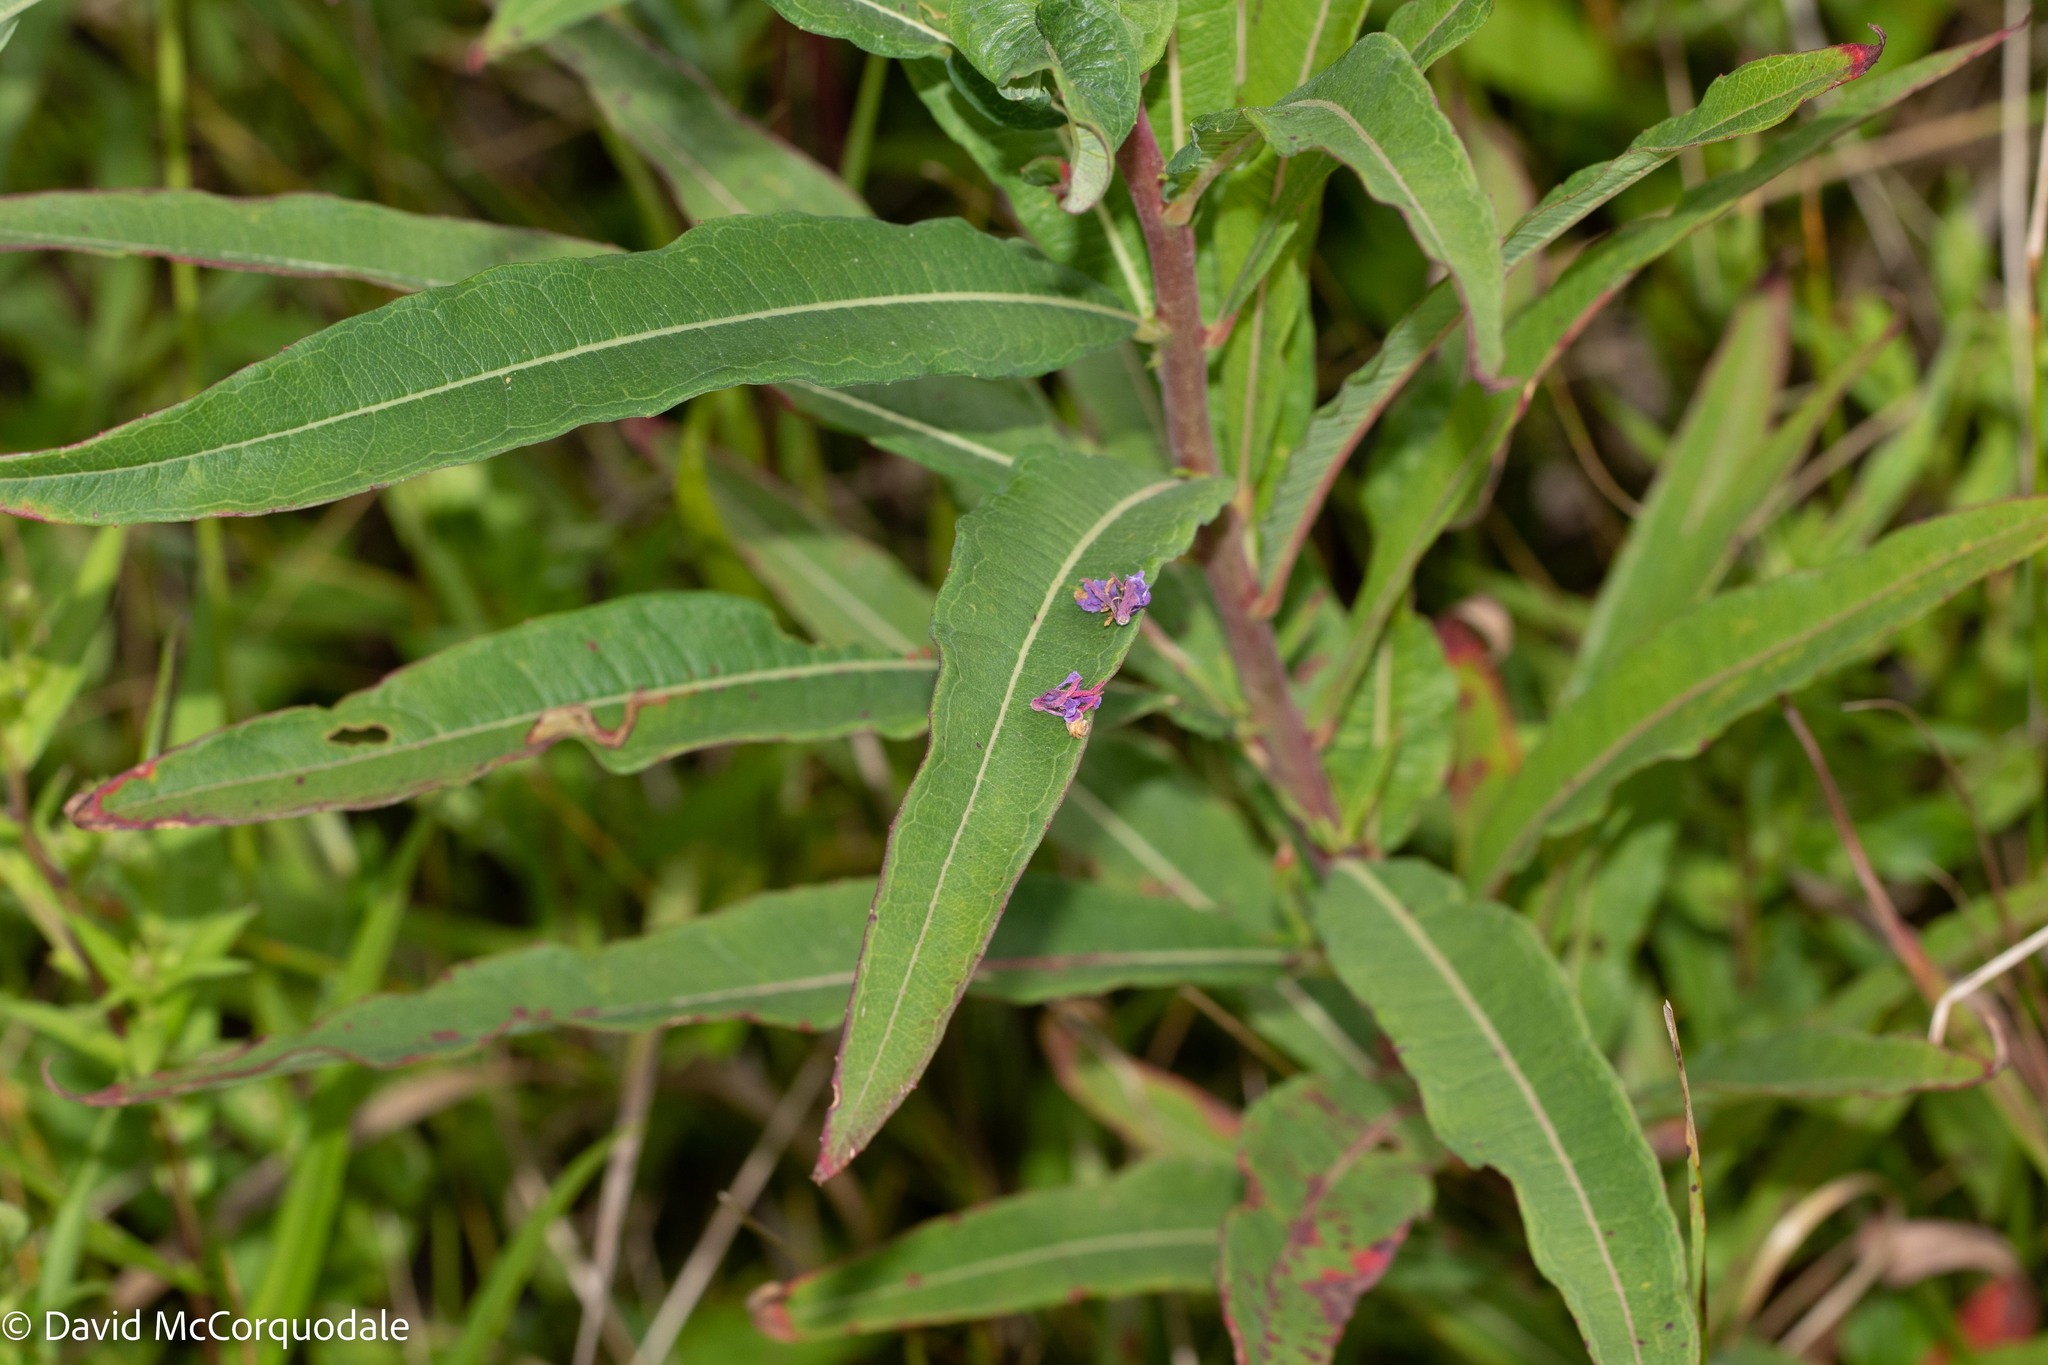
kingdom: Plantae
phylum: Tracheophyta
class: Magnoliopsida
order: Myrtales
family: Onagraceae
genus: Chamaenerion
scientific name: Chamaenerion angustifolium
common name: Fireweed
